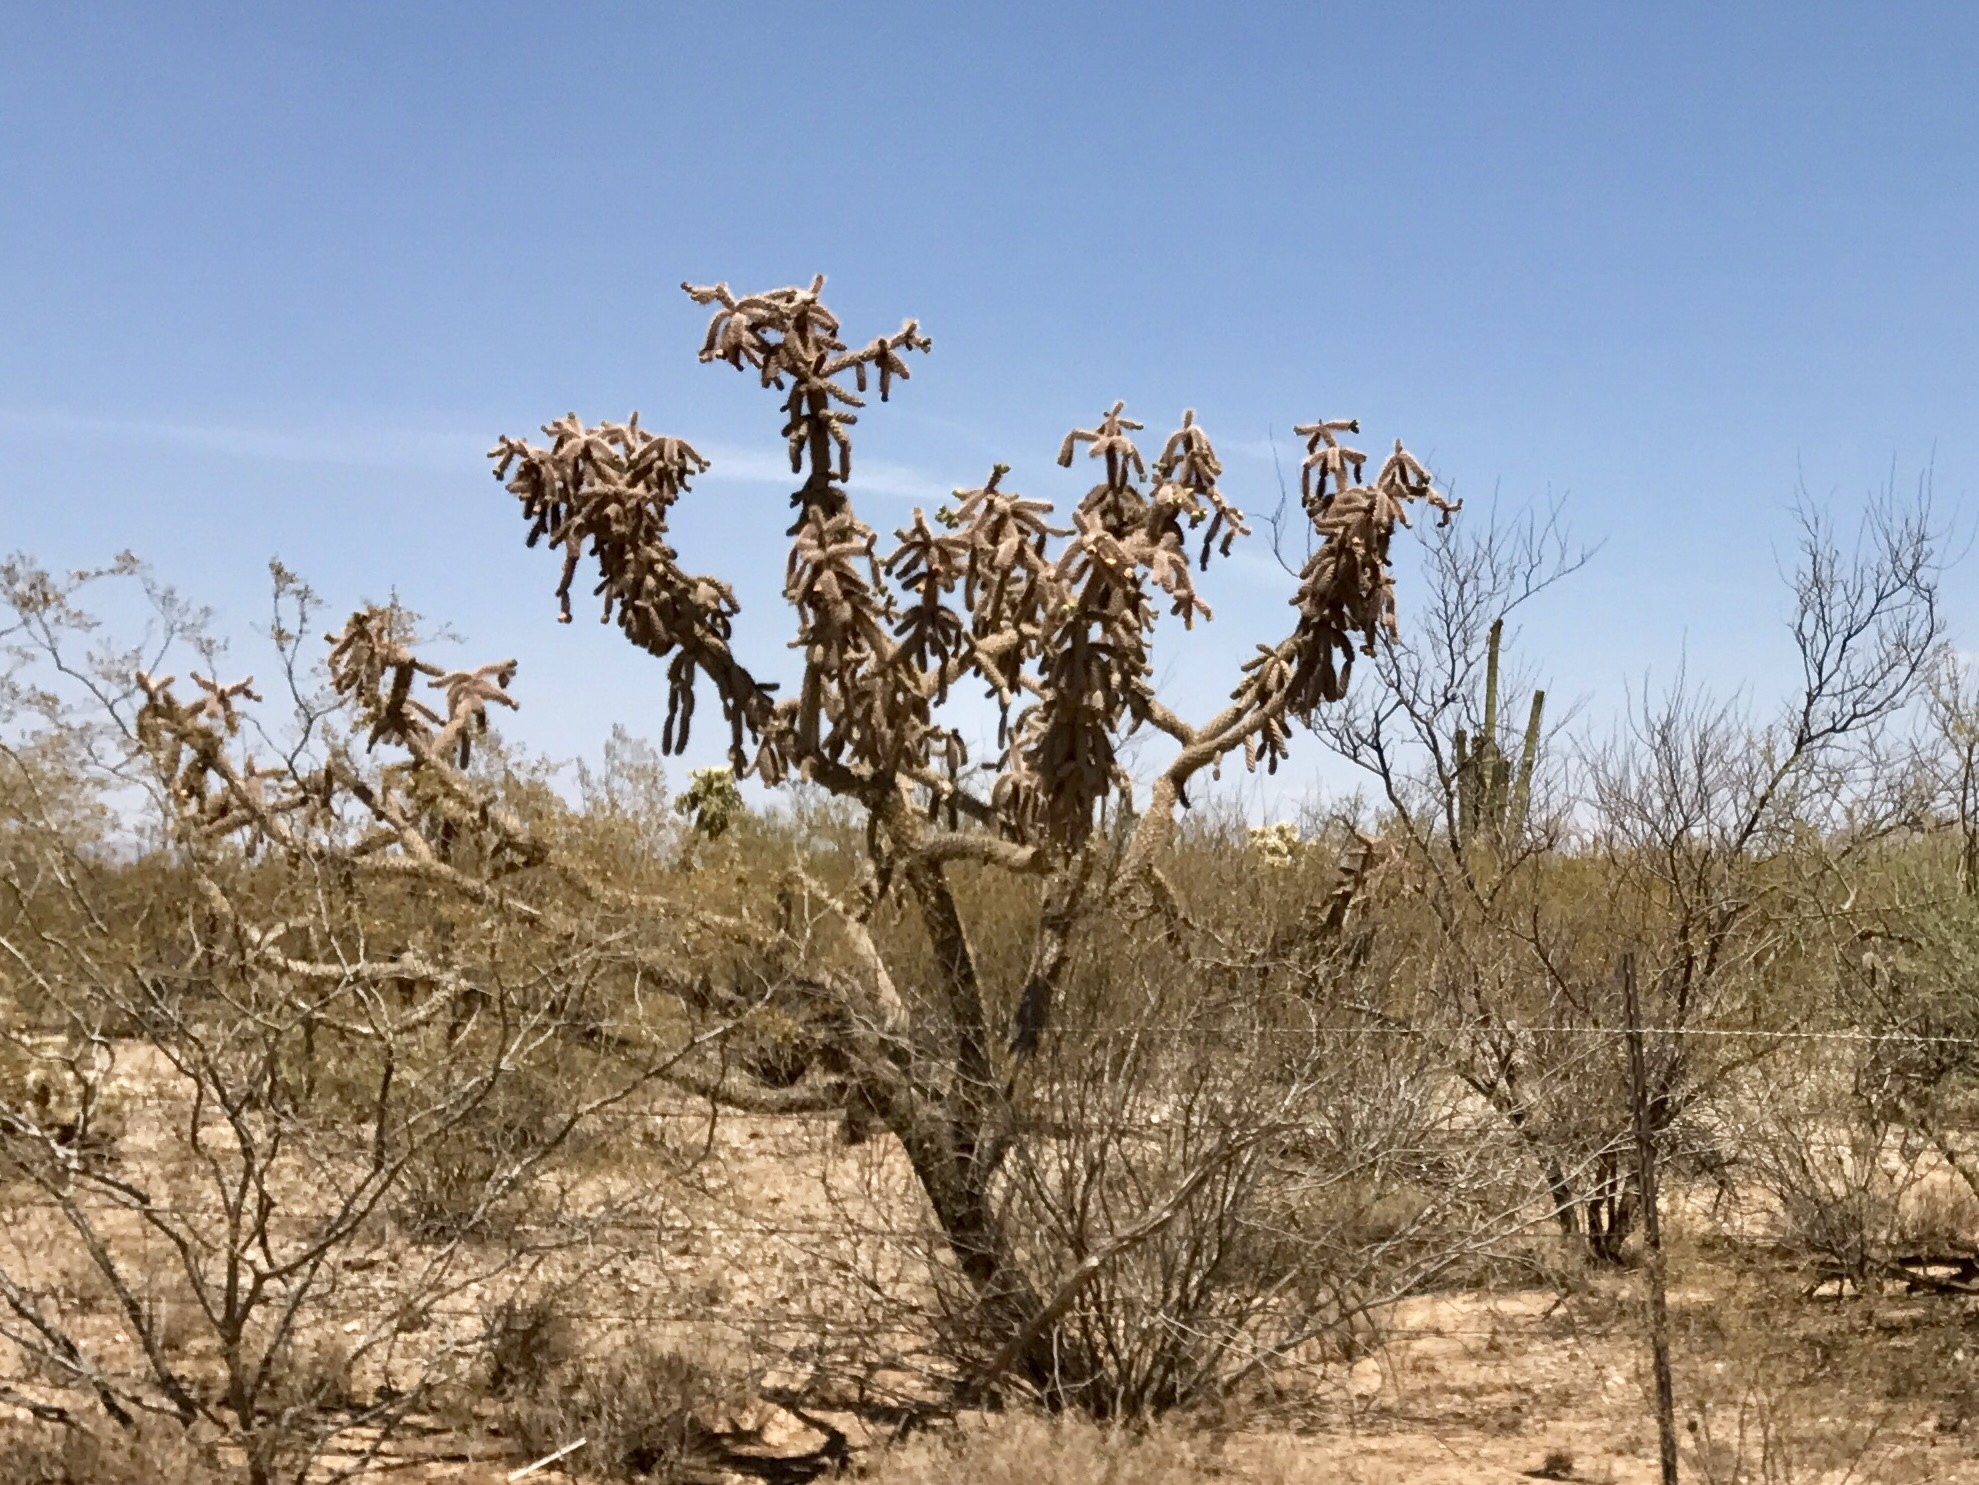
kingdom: Plantae
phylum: Tracheophyta
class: Magnoliopsida
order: Caryophyllales
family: Cactaceae
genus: Cylindropuntia
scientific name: Cylindropuntia imbricata
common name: Candelabrum cactus
